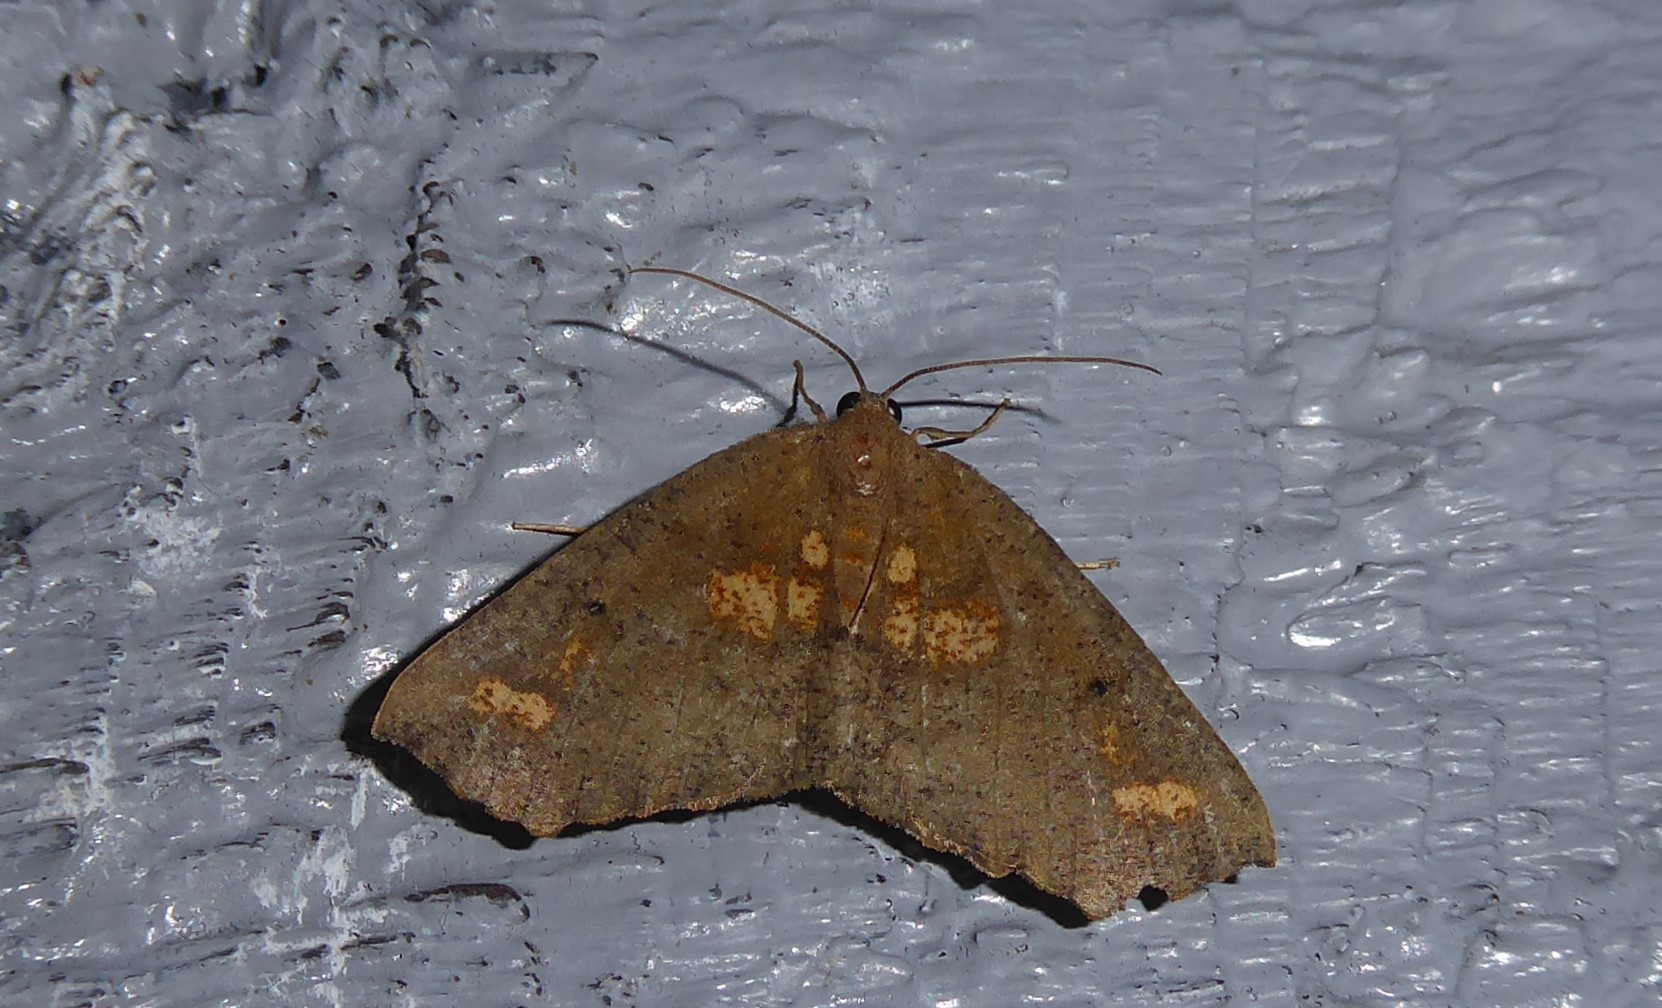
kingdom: Animalia
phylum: Arthropoda
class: Insecta
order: Lepidoptera
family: Geometridae
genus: Xyridacma
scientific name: Xyridacma ustaria
